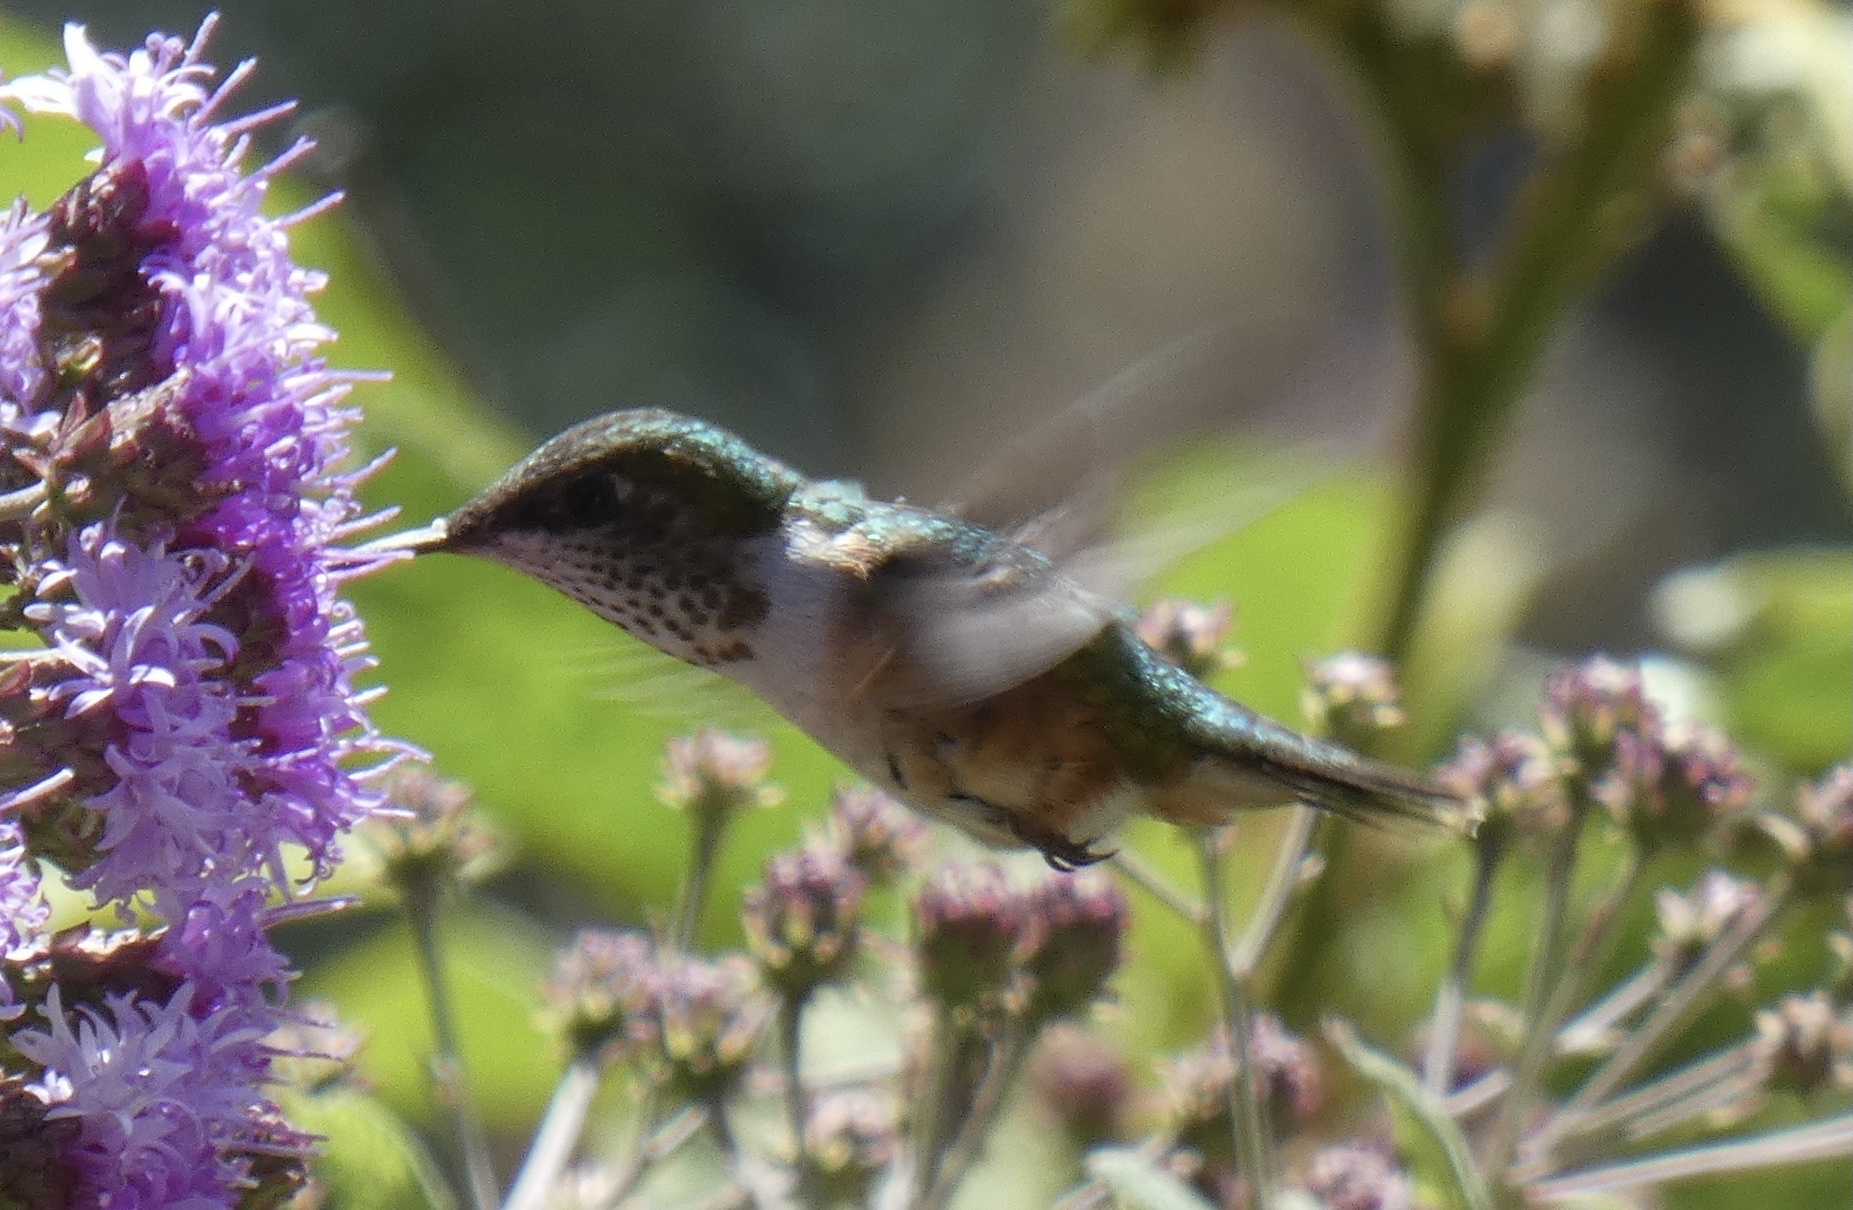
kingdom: Animalia
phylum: Chordata
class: Aves
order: Apodiformes
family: Trochilidae
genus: Selasphorus
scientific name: Selasphorus rufus
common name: Rufous hummingbird
